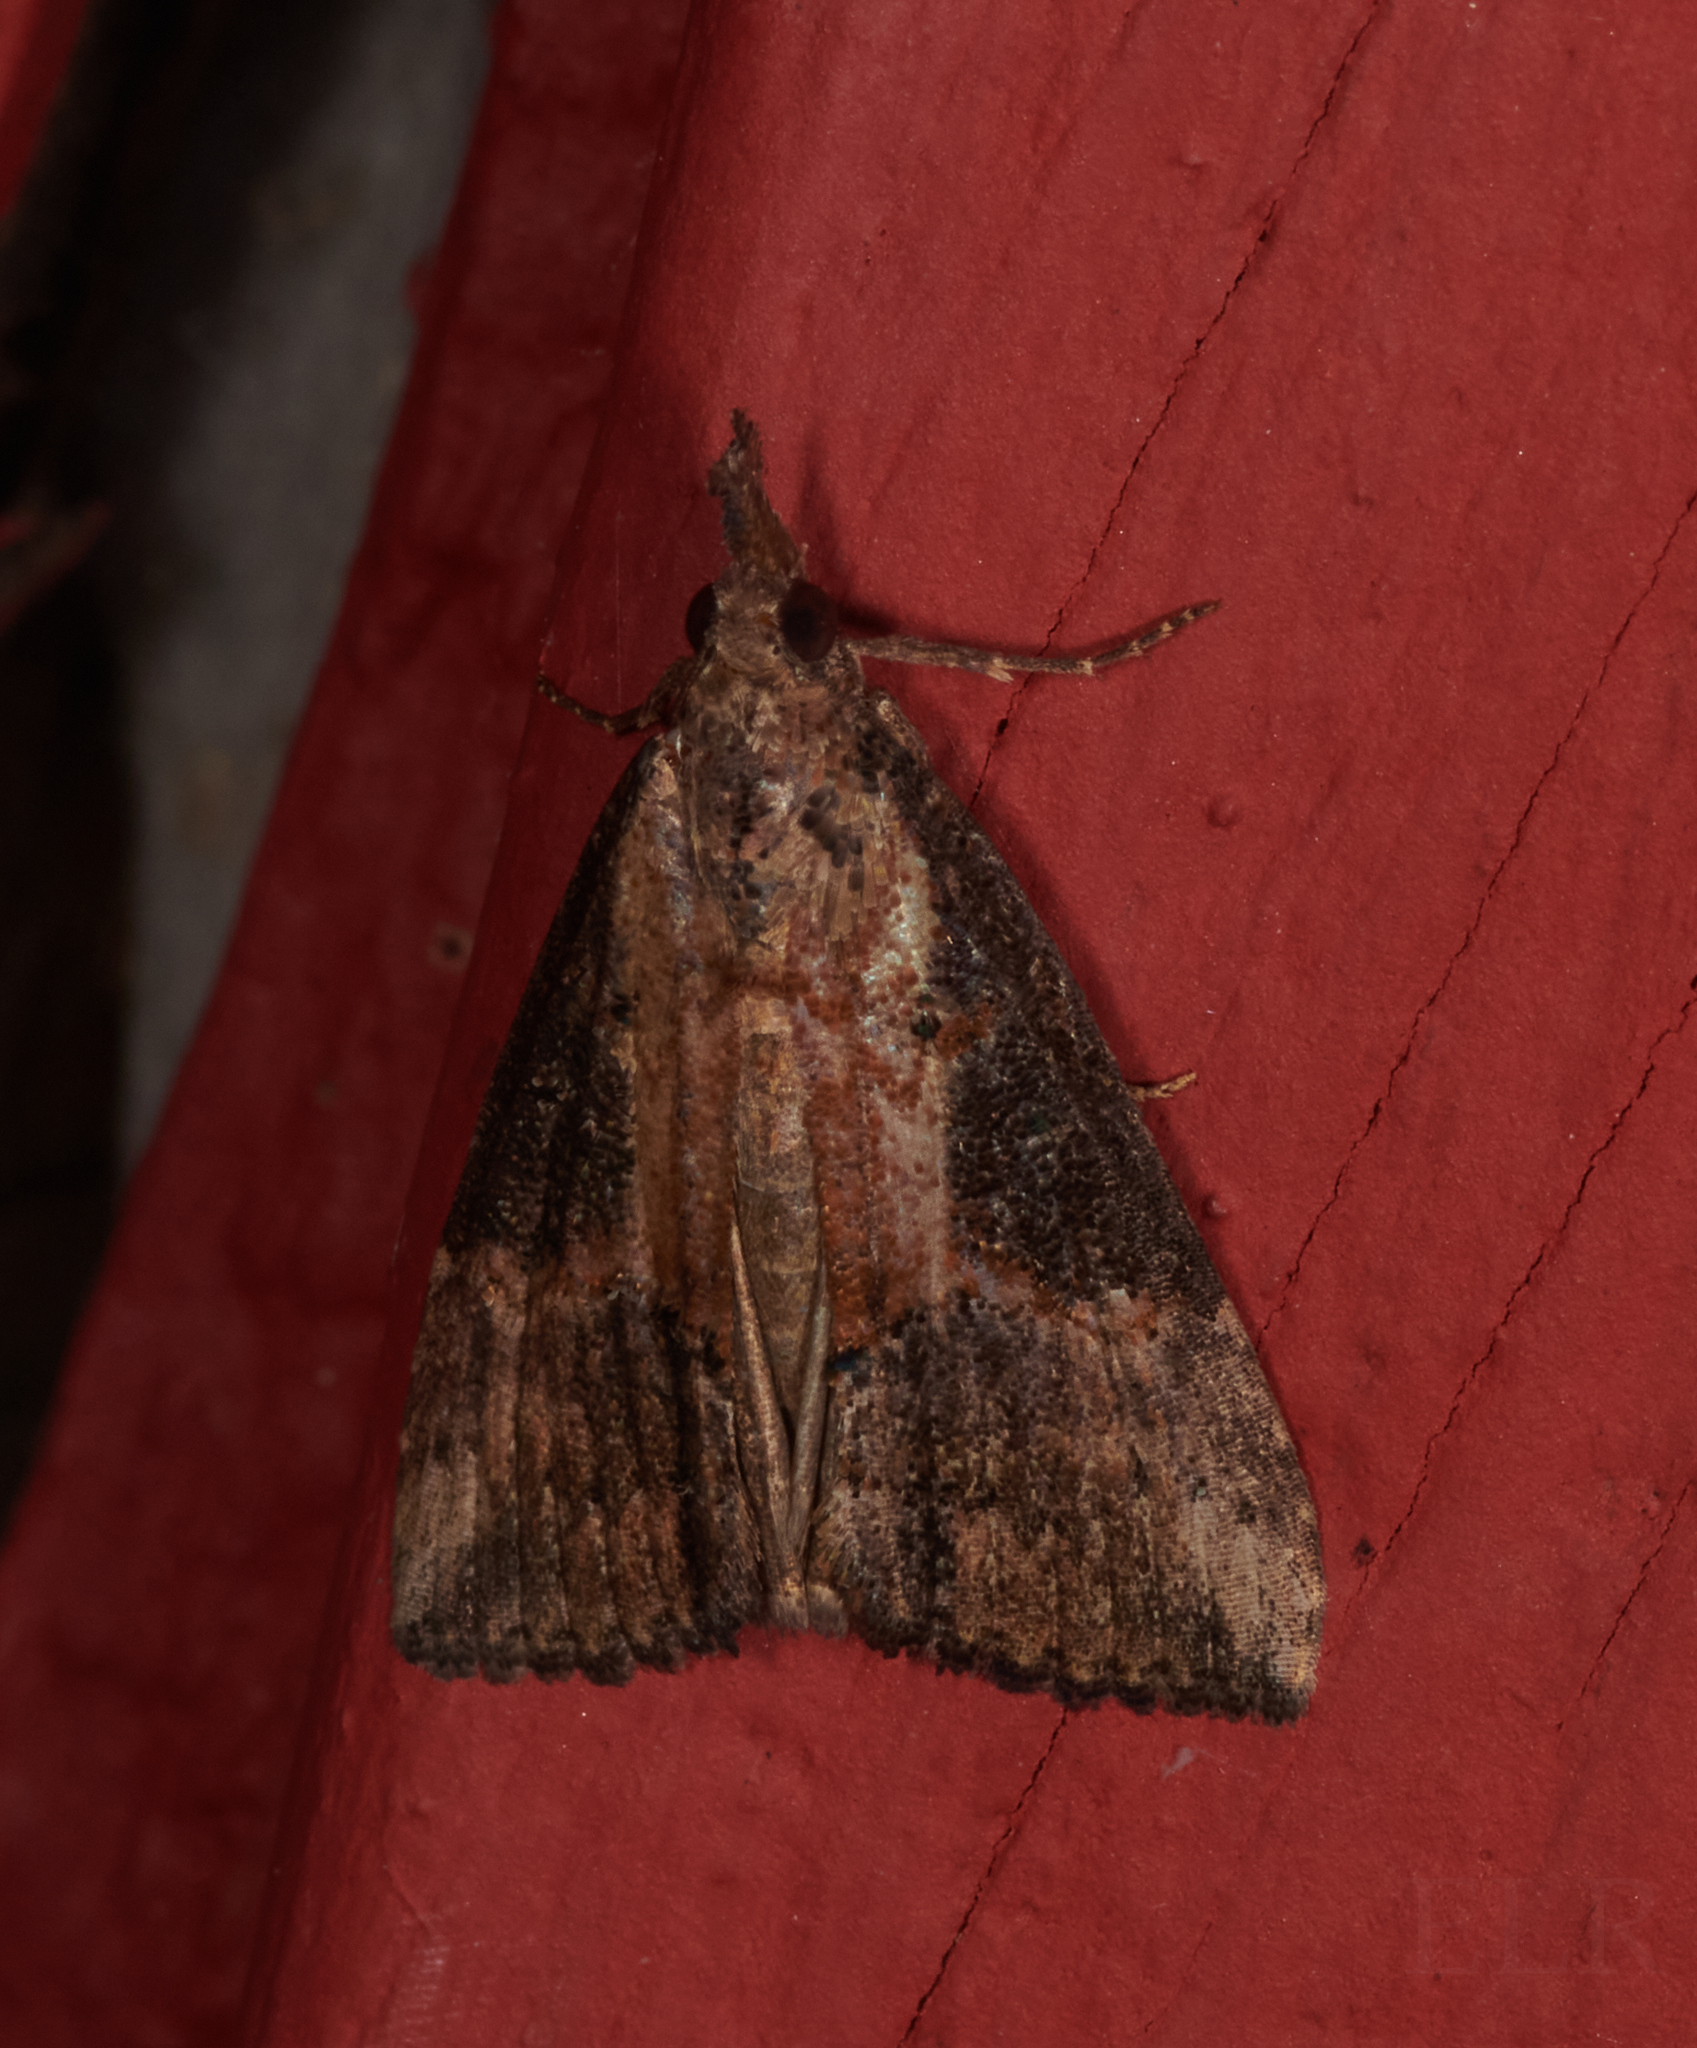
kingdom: Animalia
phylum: Arthropoda
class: Insecta
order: Lepidoptera
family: Erebidae
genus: Hypena
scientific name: Hypena scabra
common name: Green cloverworm
